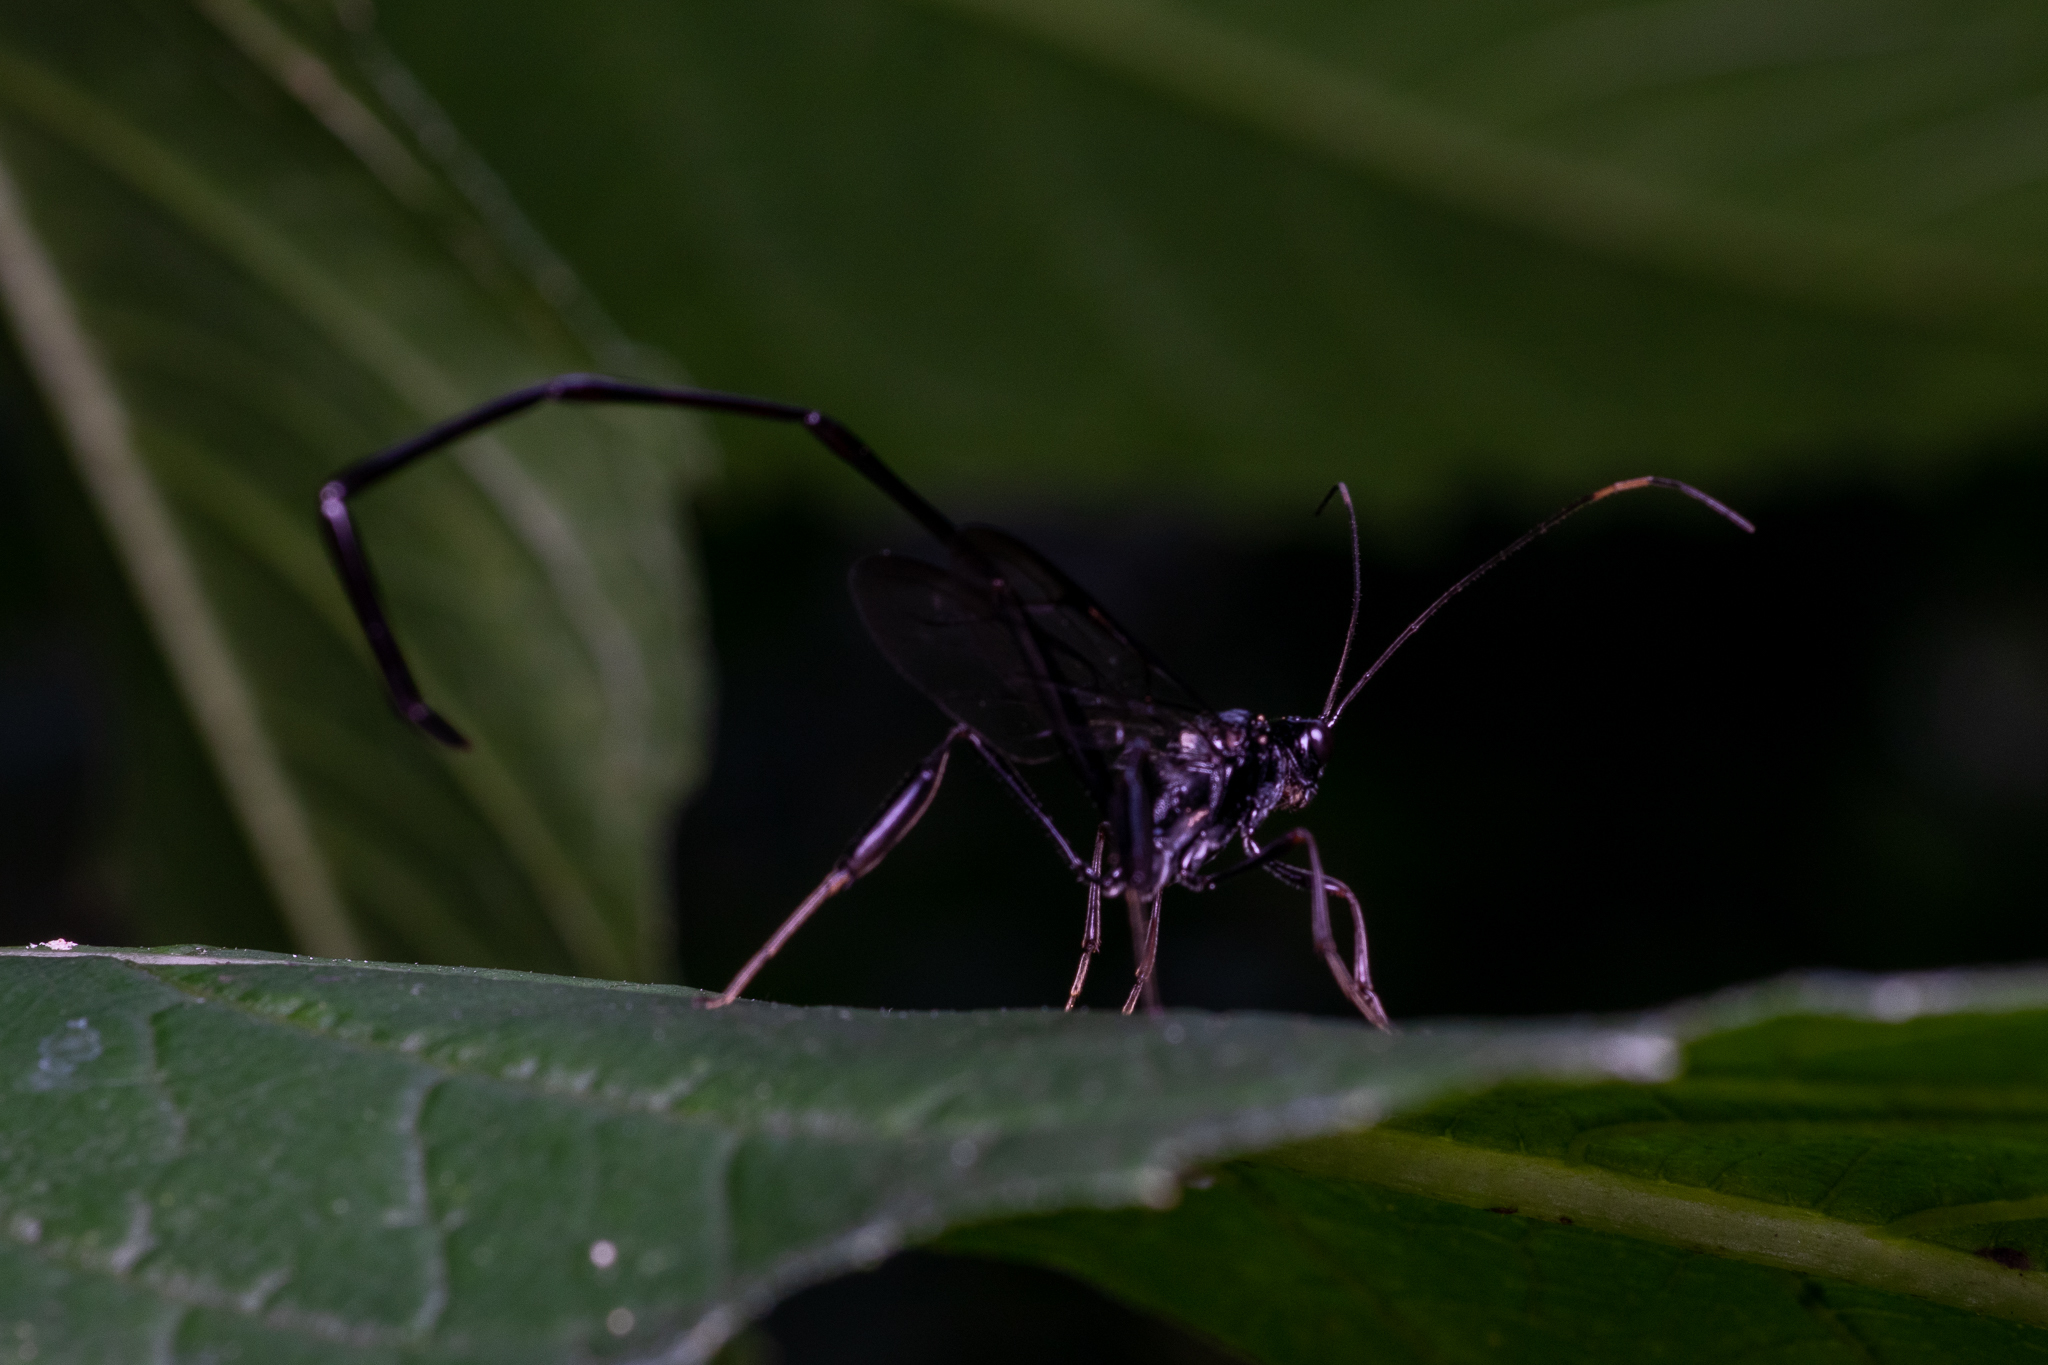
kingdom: Animalia
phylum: Arthropoda
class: Insecta
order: Hymenoptera
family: Pelecinidae
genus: Pelecinus
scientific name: Pelecinus polyturator
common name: American pelecinid wasp
